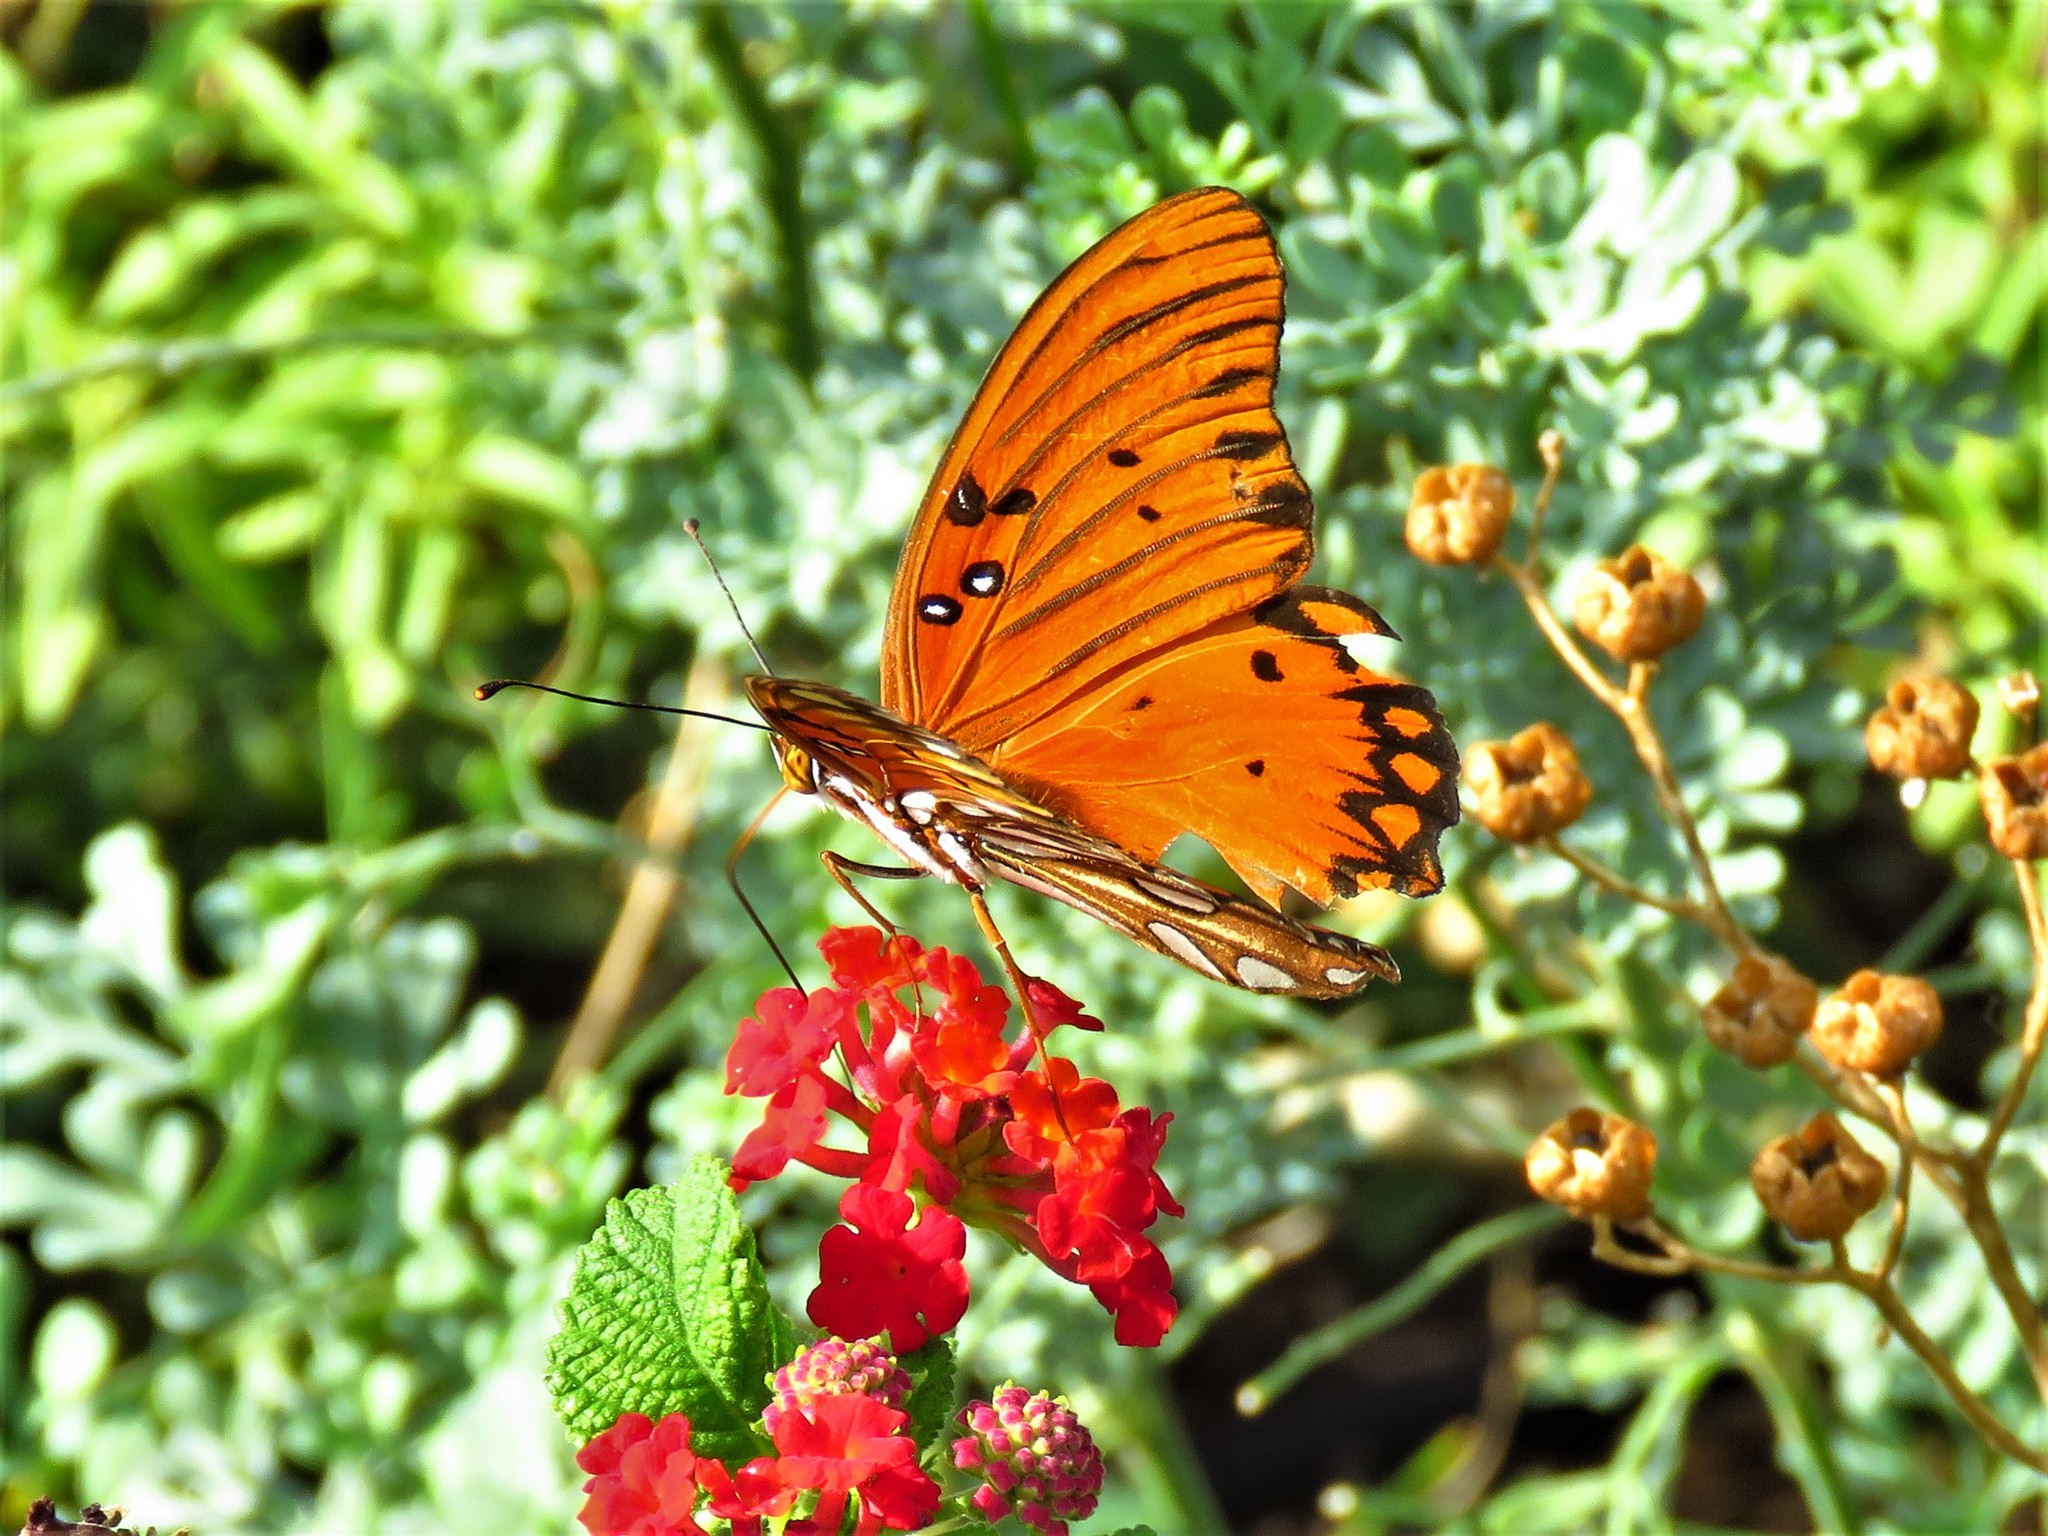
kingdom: Animalia
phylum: Arthropoda
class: Insecta
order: Lepidoptera
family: Nymphalidae
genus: Dione
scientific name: Dione vanillae
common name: Gulf fritillary
